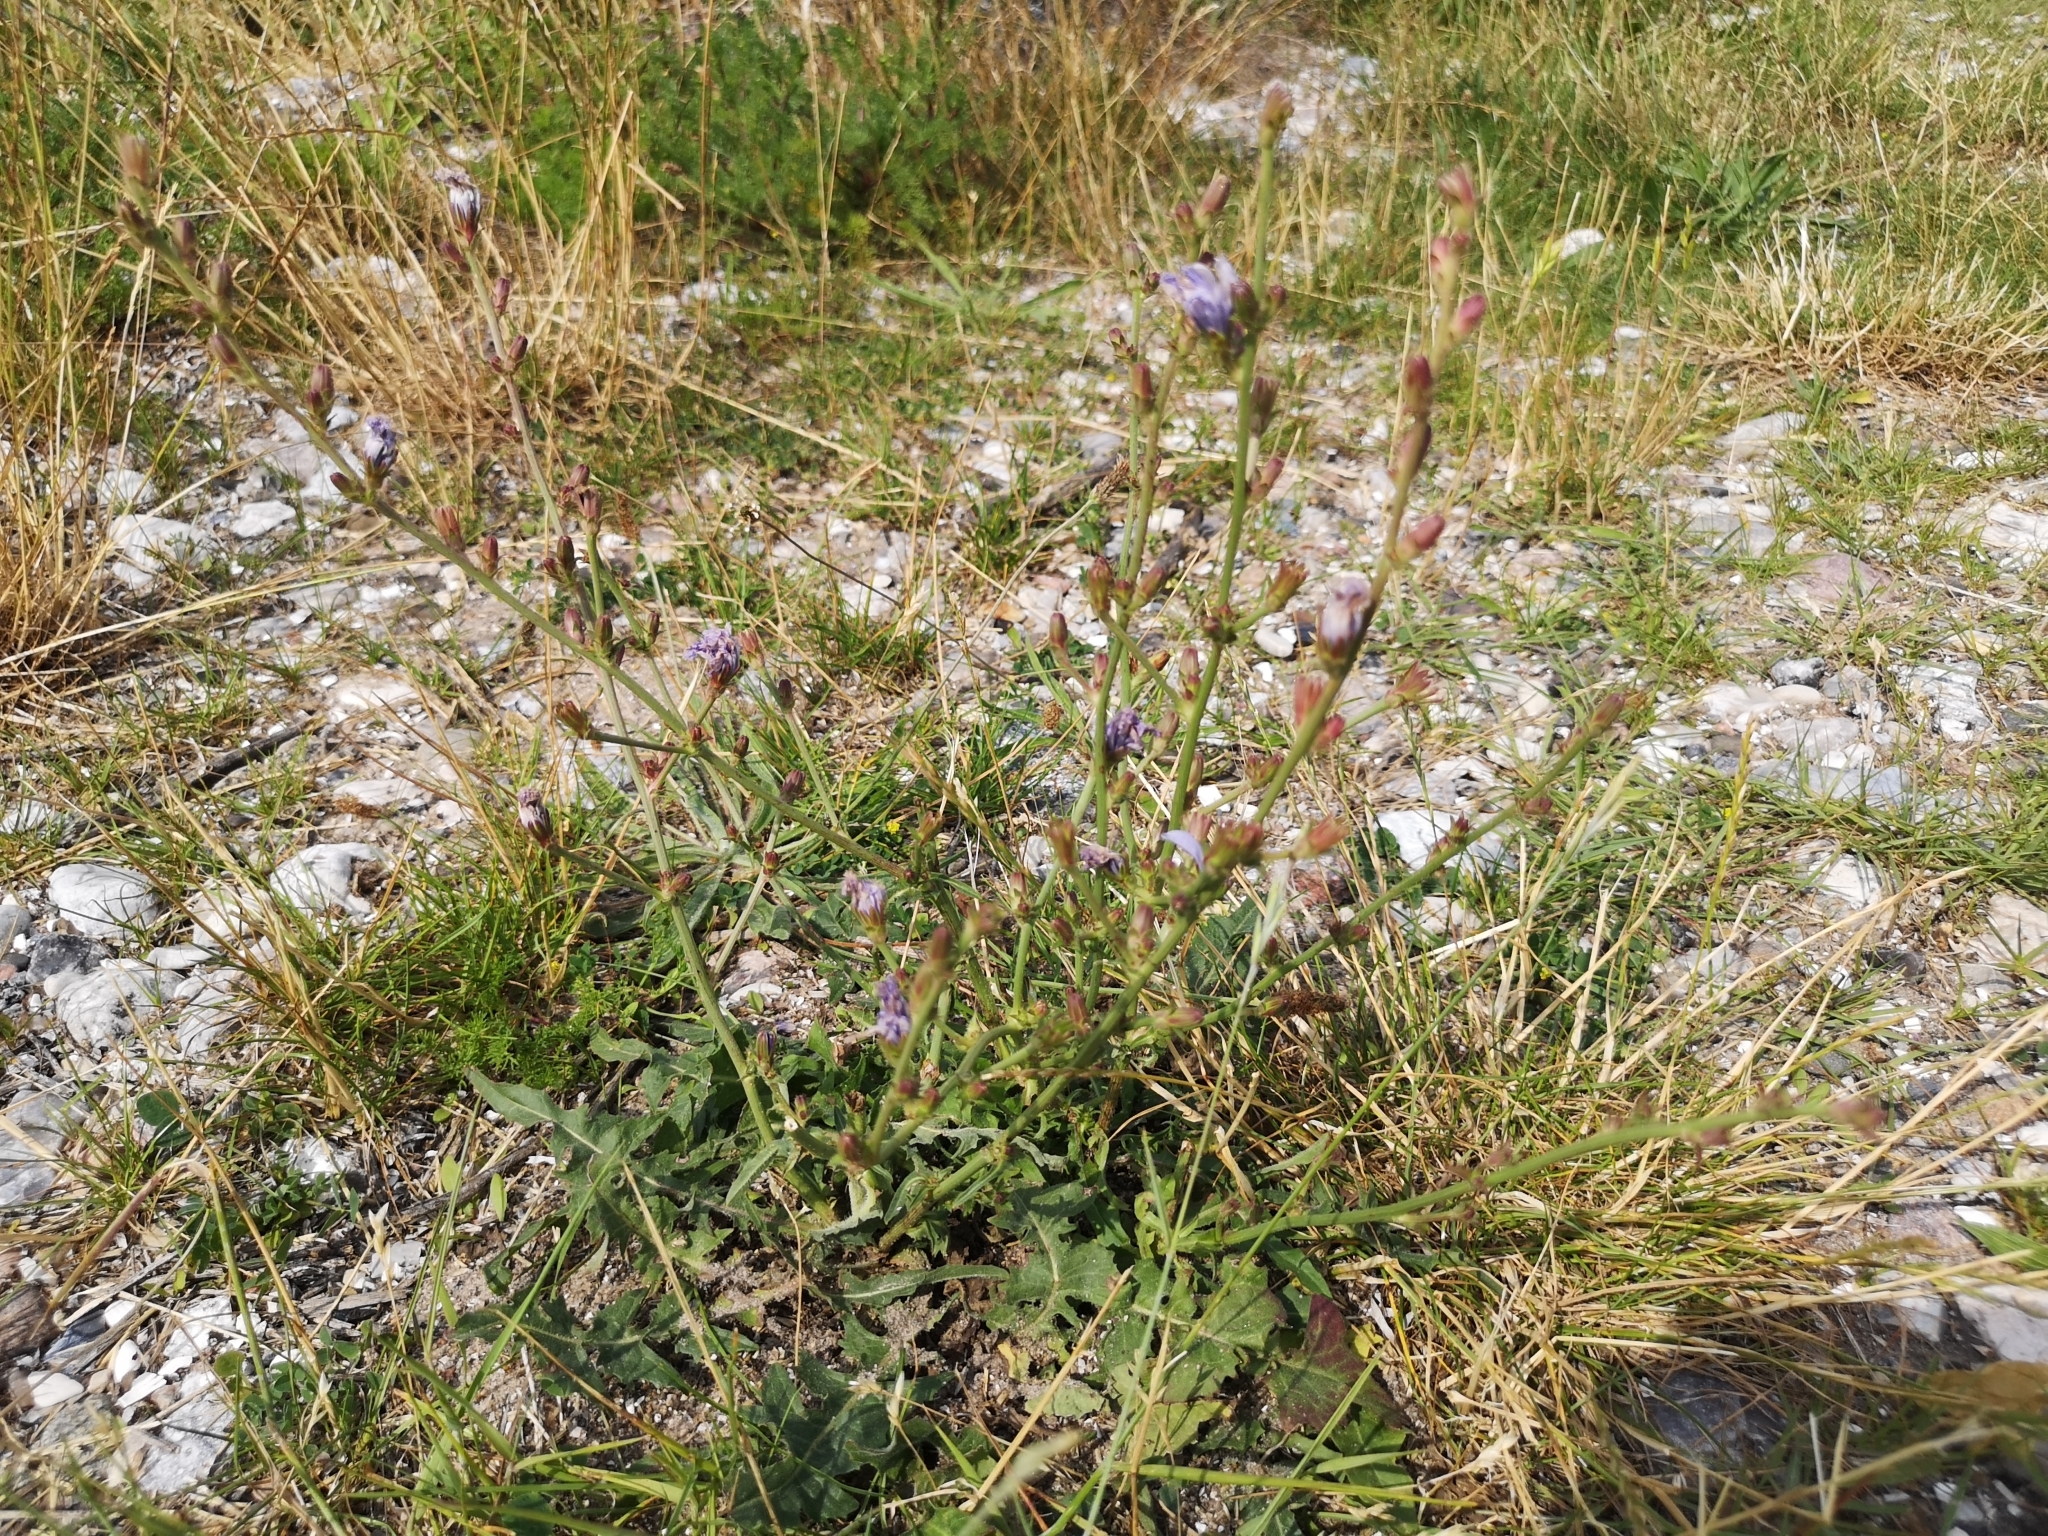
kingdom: Plantae
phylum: Tracheophyta
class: Magnoliopsida
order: Asterales
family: Asteraceae
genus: Cichorium
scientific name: Cichorium intybus
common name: Chicory
